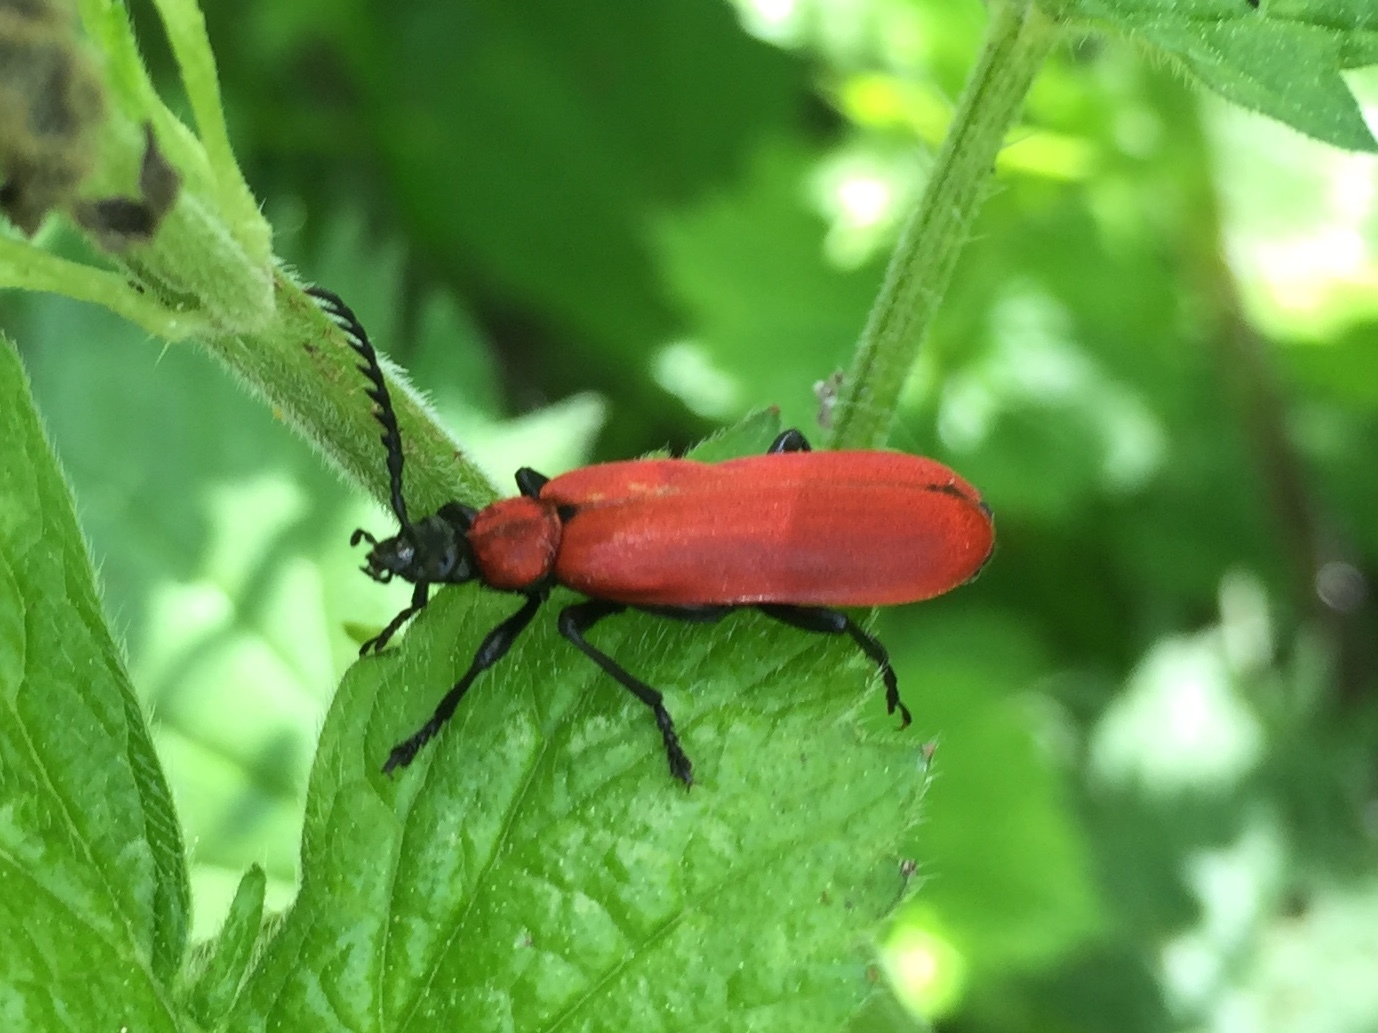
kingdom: Animalia
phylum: Arthropoda
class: Insecta
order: Coleoptera
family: Pyrochroidae
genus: Pyrochroa
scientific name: Pyrochroa coccinea
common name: Black-headed cardinal beetle
